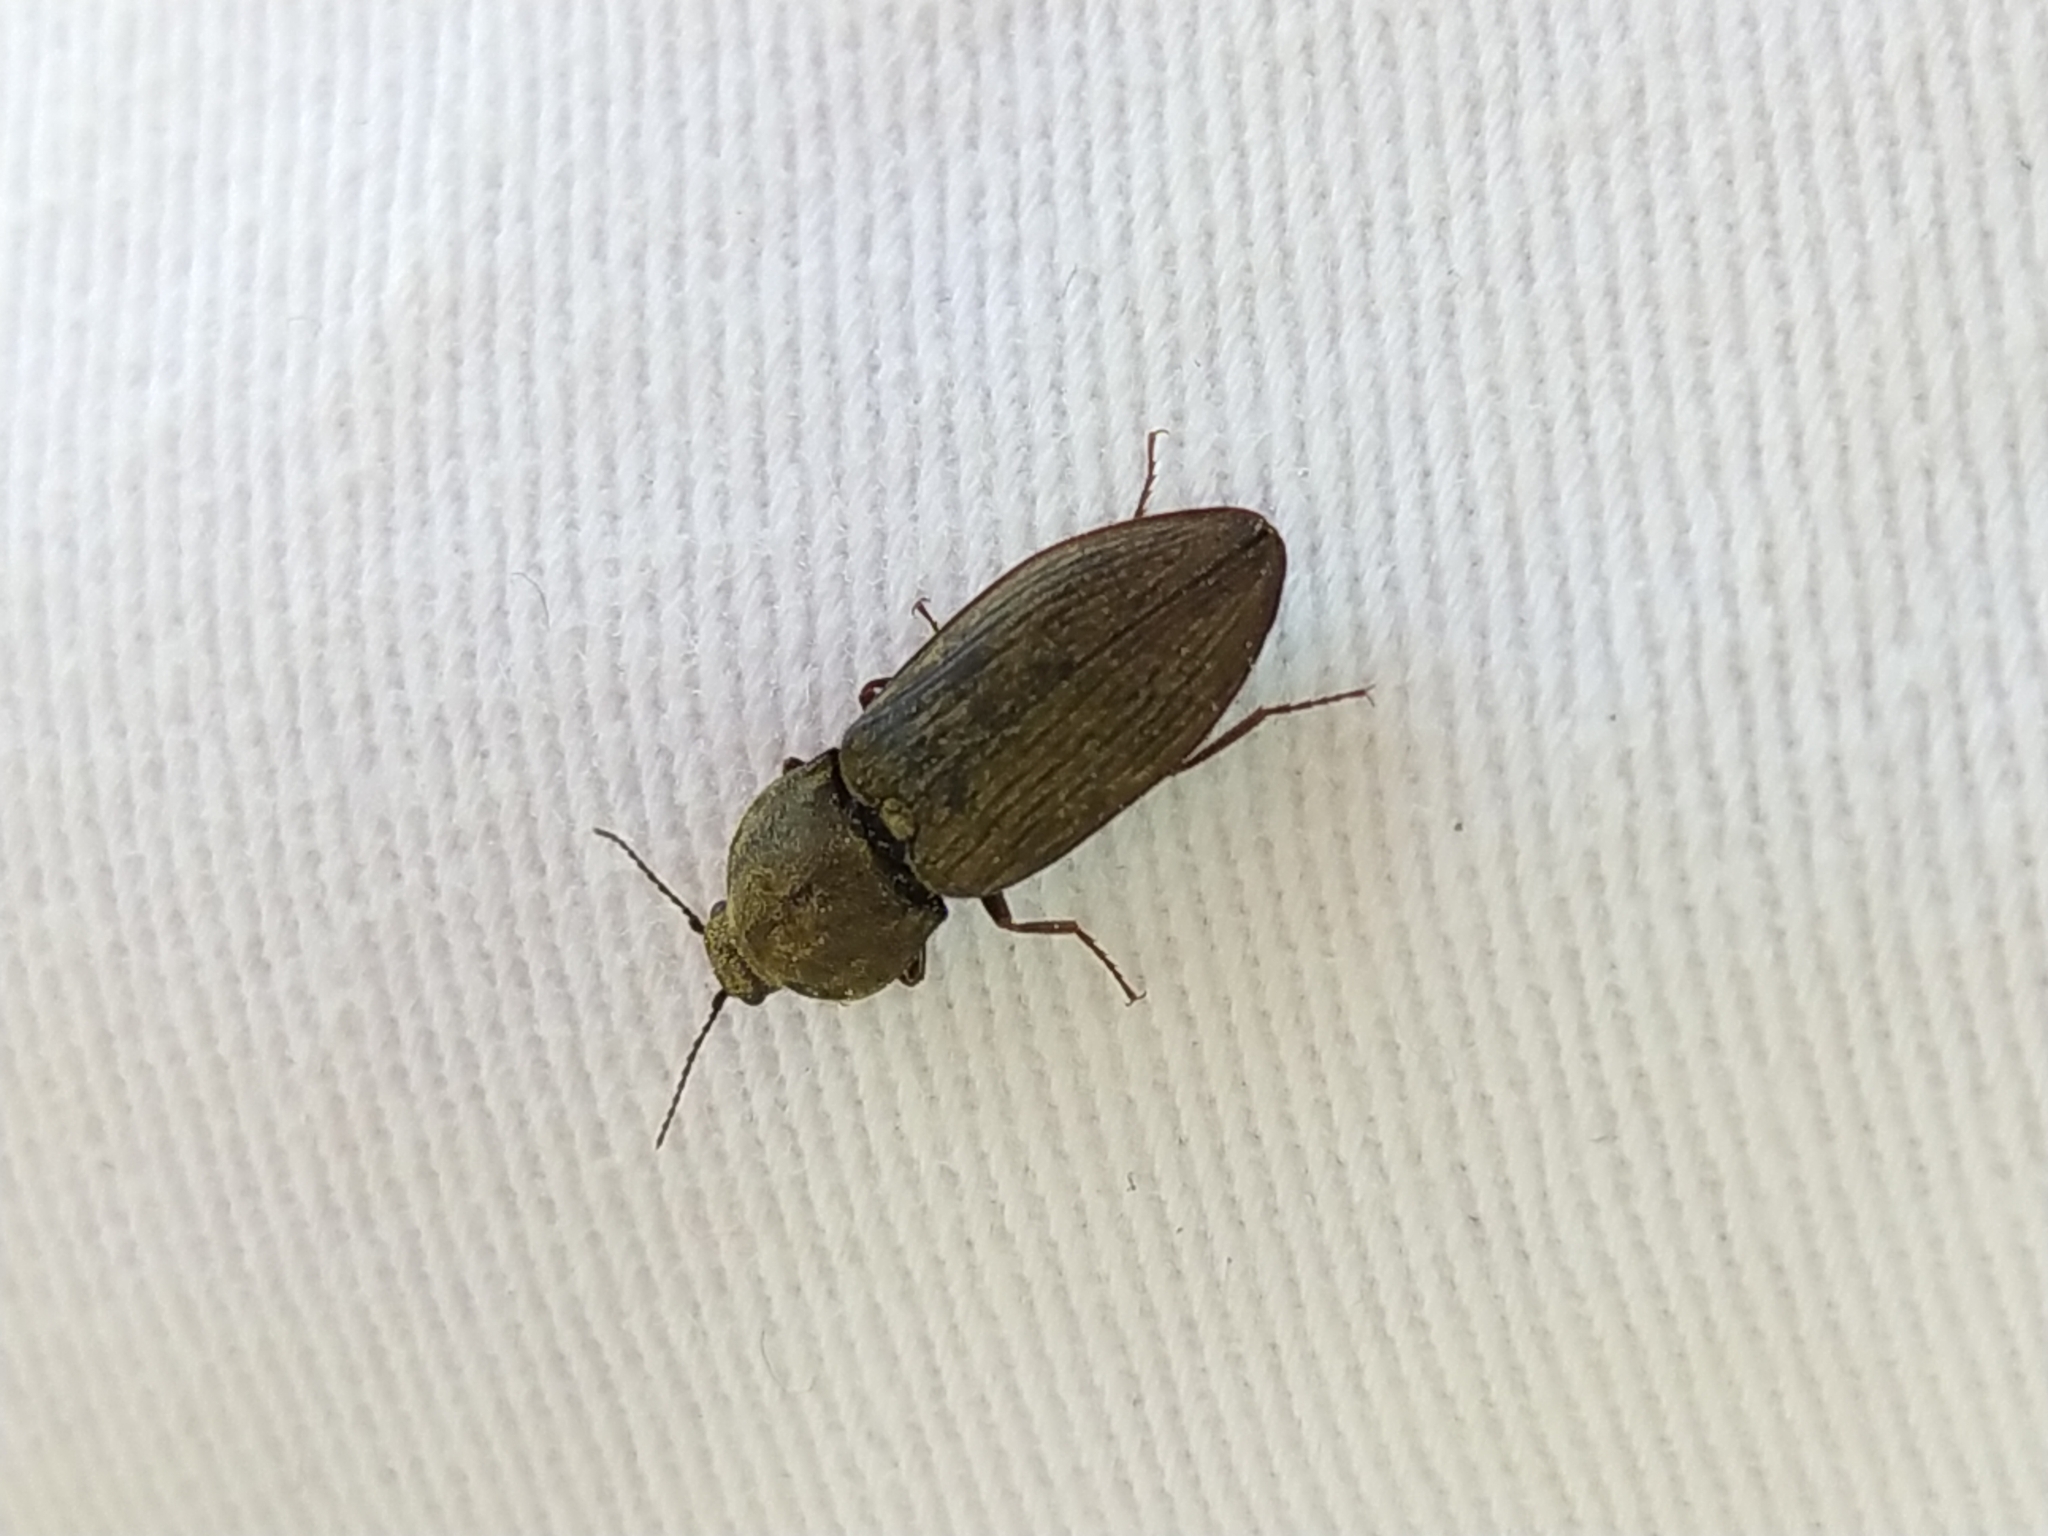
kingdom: Animalia
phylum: Arthropoda
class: Insecta
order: Coleoptera
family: Elateridae
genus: Prosternon
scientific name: Prosternon tessellatum
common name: Chequered click beetle
